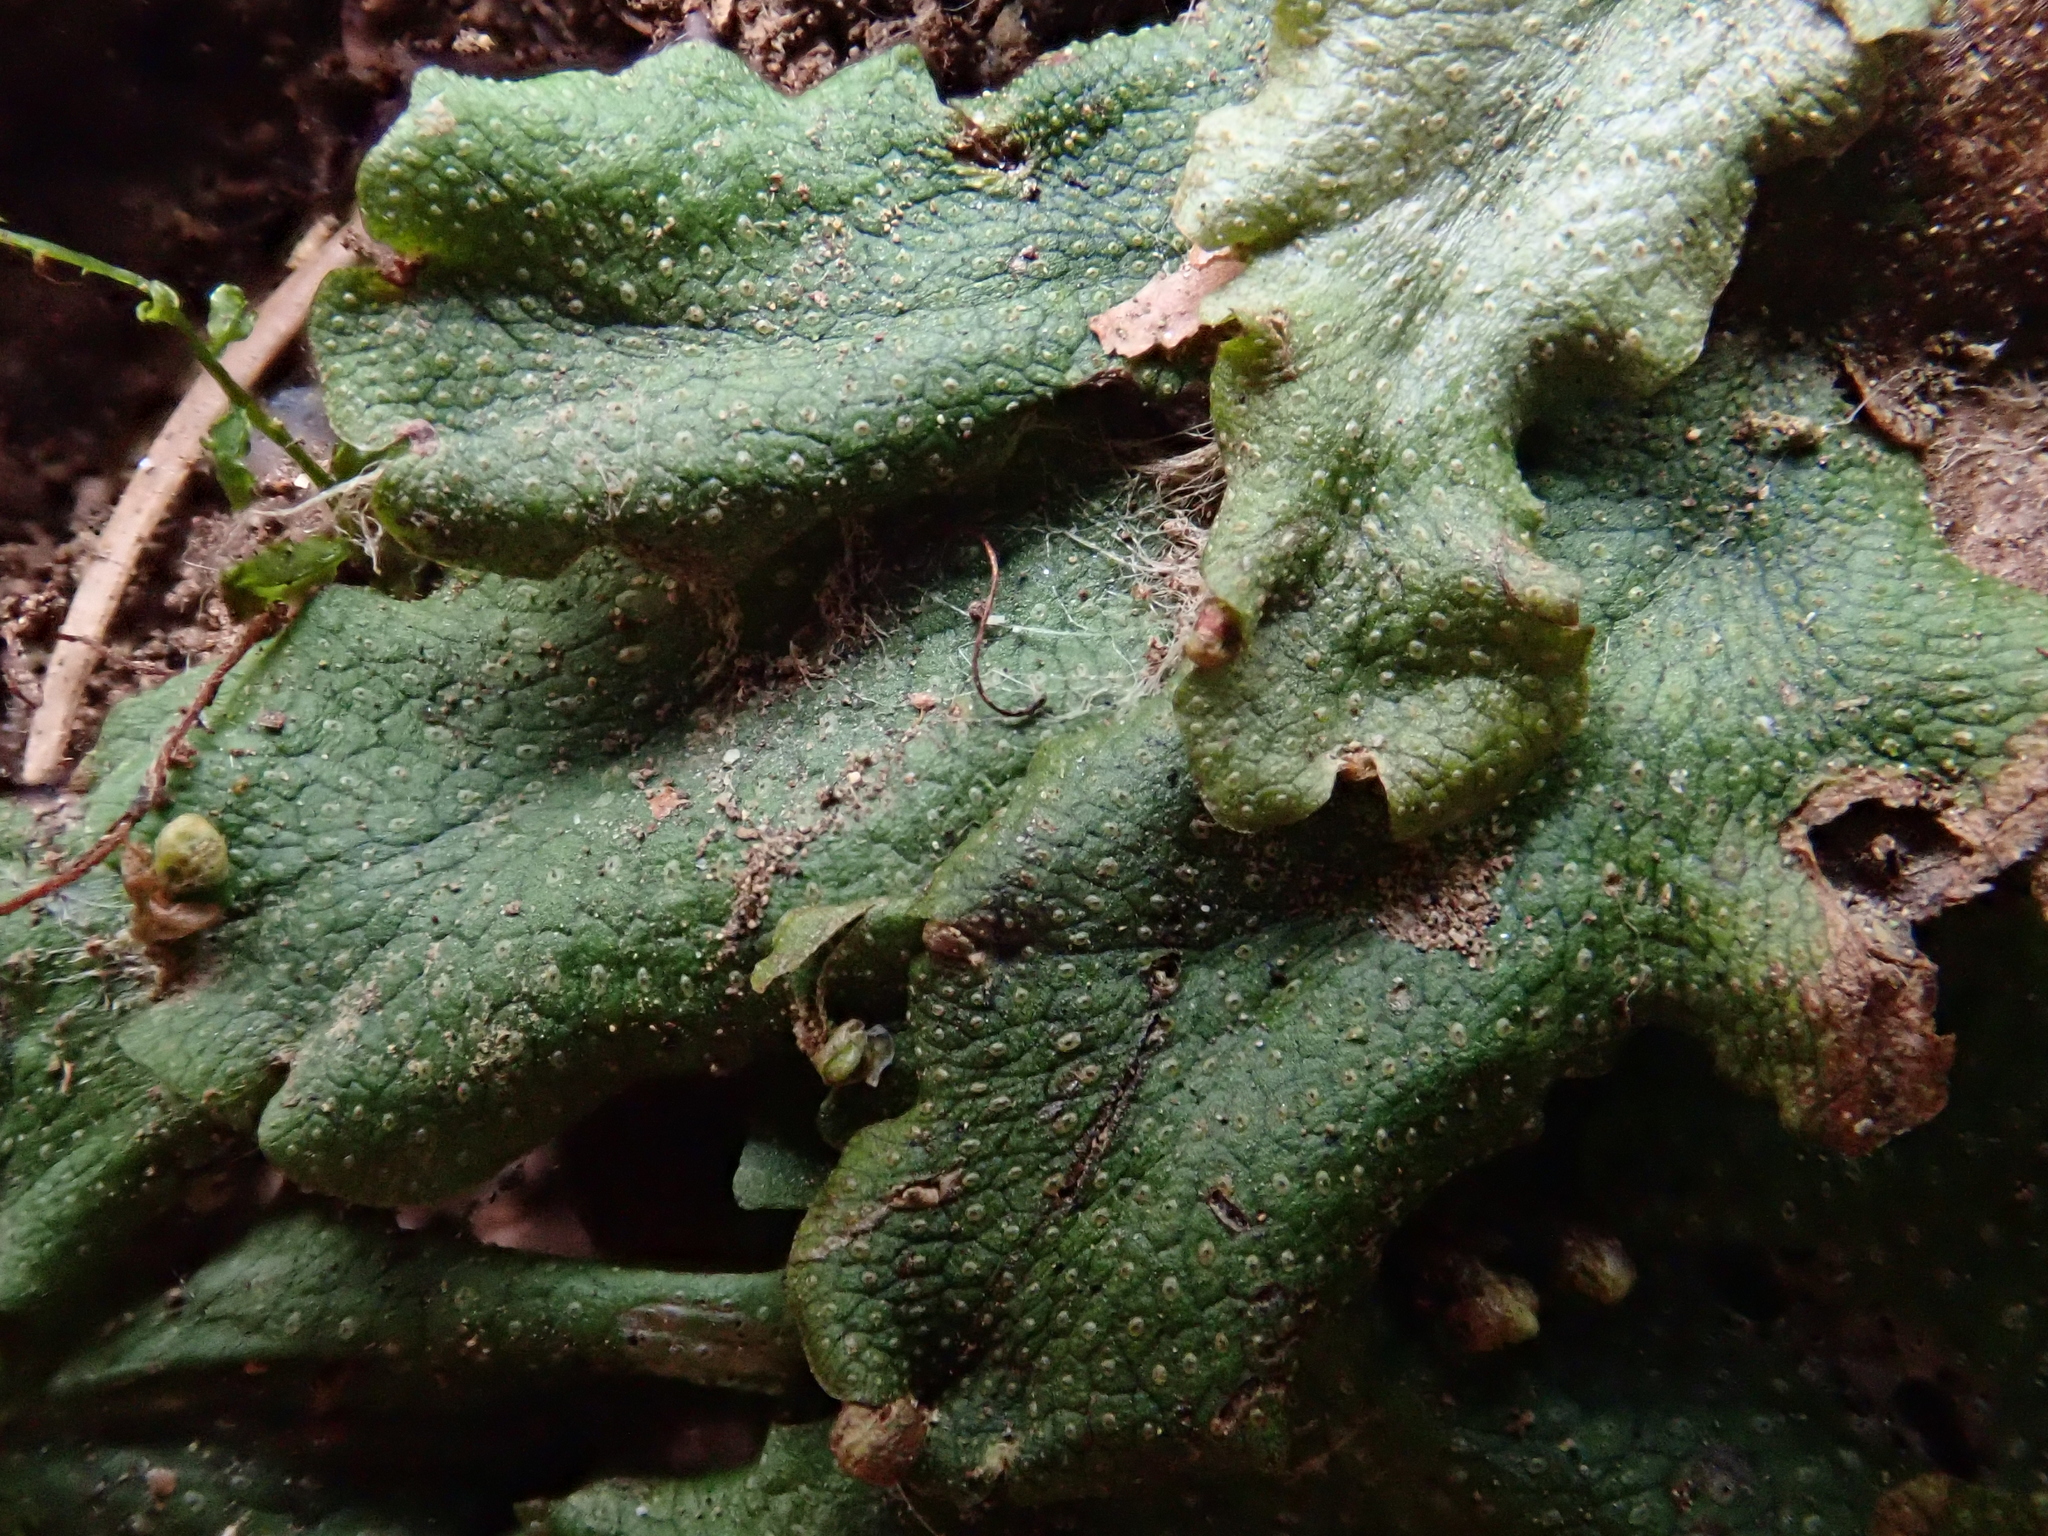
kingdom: Plantae
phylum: Marchantiophyta
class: Marchantiopsida
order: Marchantiales
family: Conocephalaceae
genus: Conocephalum
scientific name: Conocephalum salebrosum
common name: Cat-tongue liverwort
